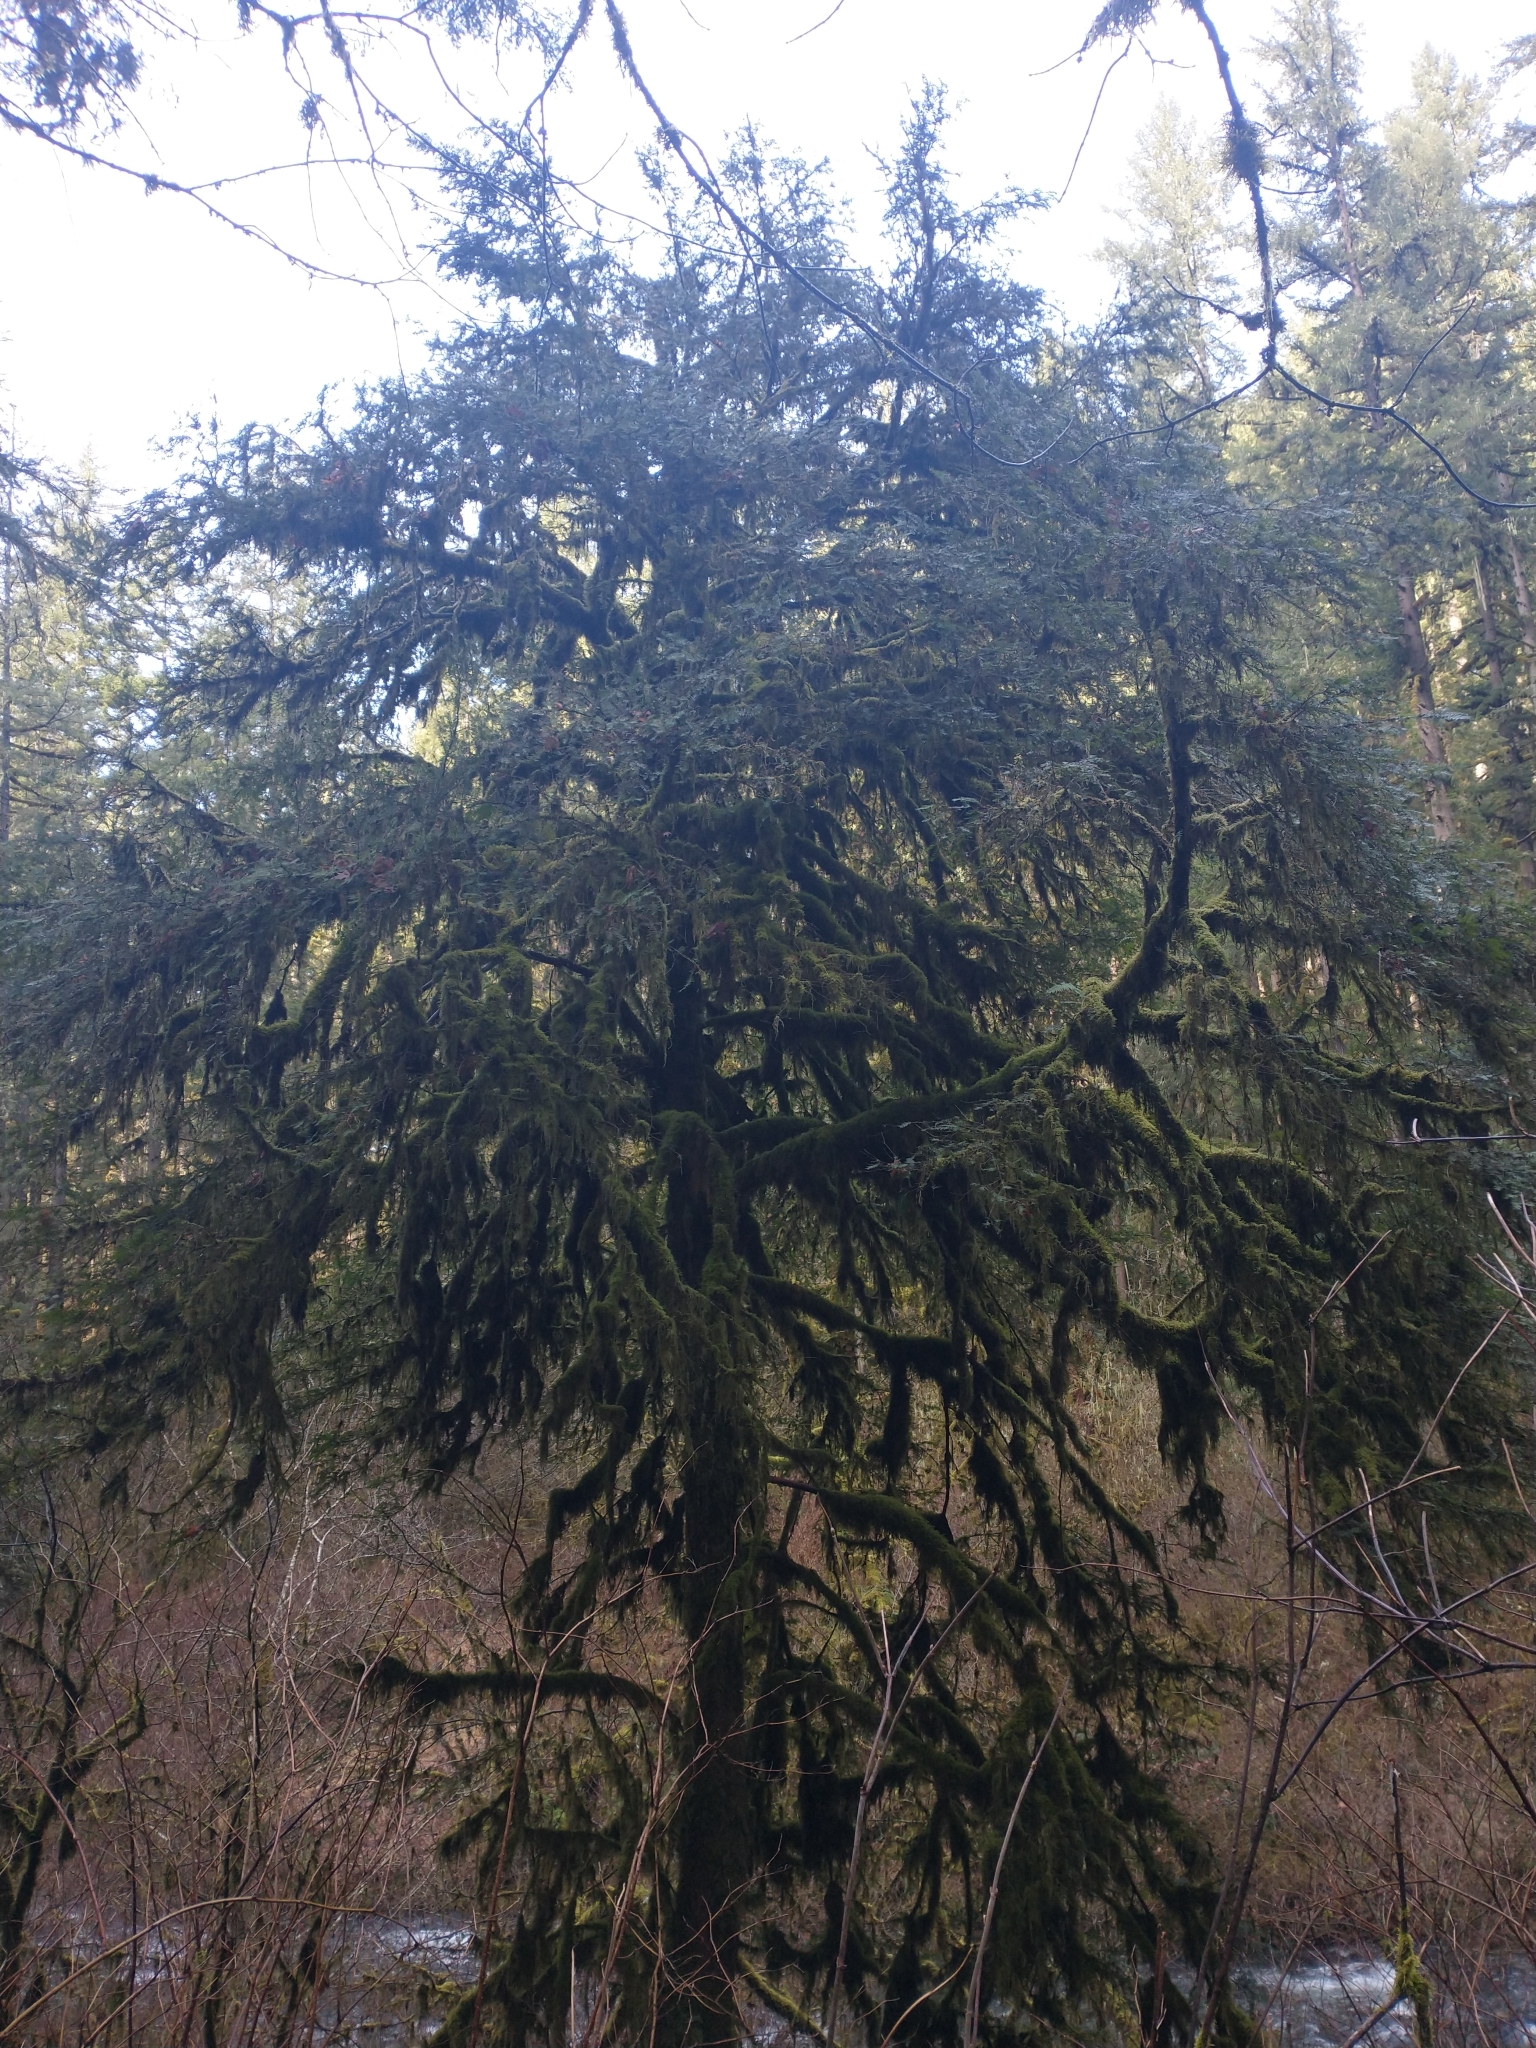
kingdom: Plantae
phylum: Tracheophyta
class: Pinopsida
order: Pinales
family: Taxaceae
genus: Taxus
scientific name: Taxus brevifolia
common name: Pacific yew
